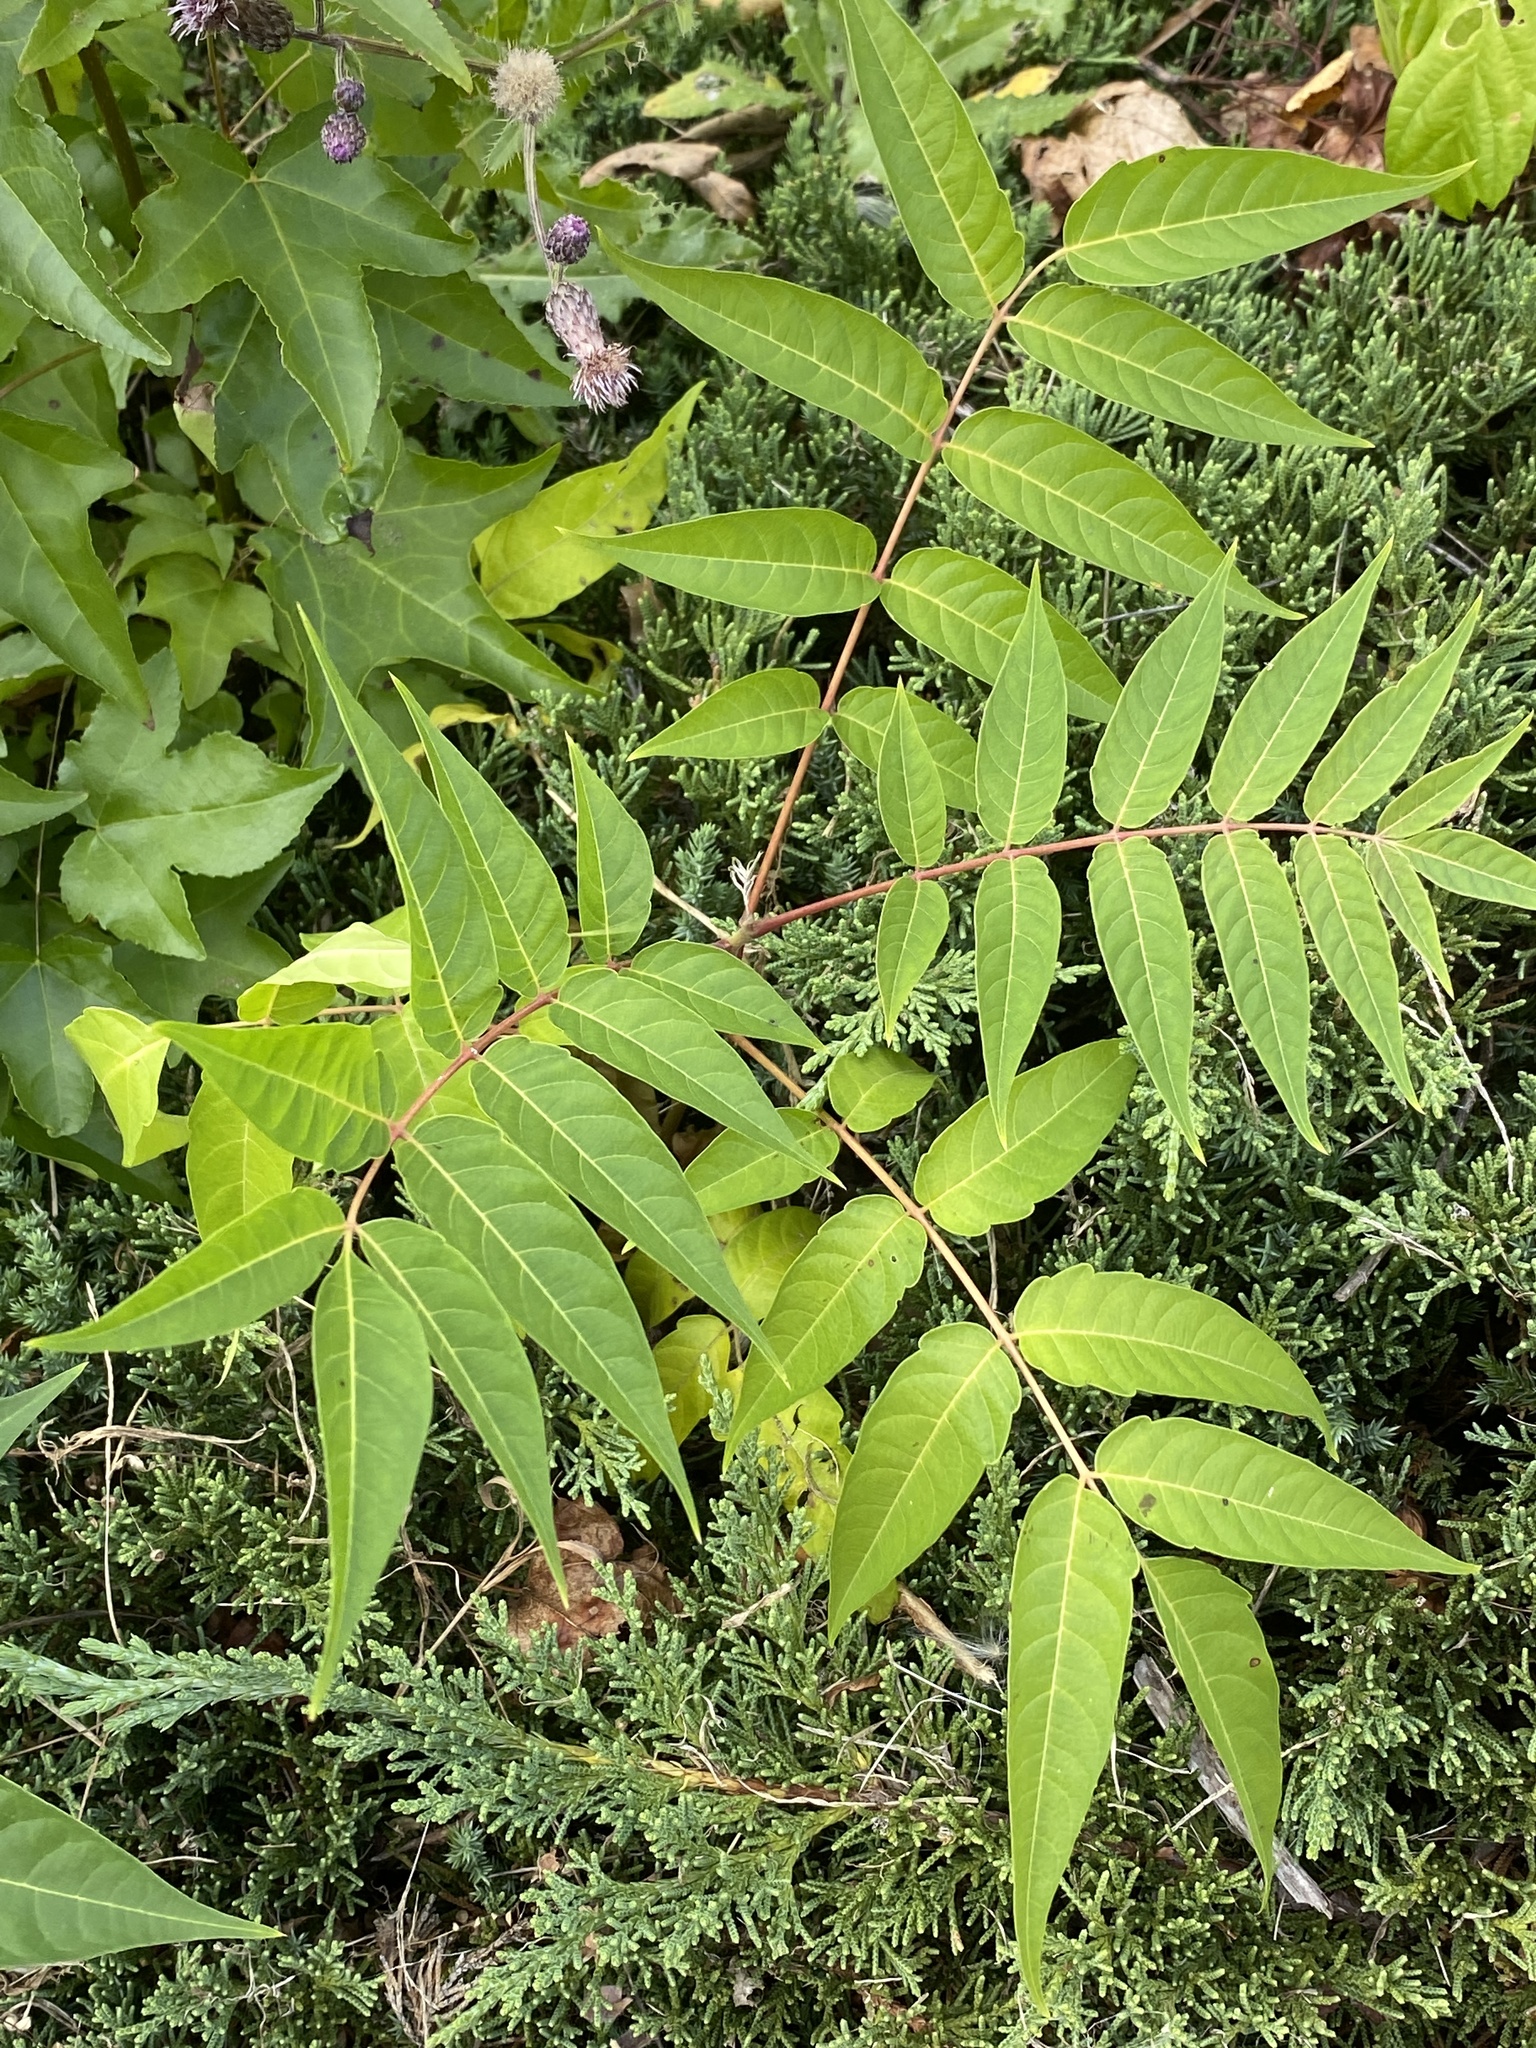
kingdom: Plantae
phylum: Tracheophyta
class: Magnoliopsida
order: Sapindales
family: Simaroubaceae
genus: Ailanthus
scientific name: Ailanthus altissima
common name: Tree-of-heaven
